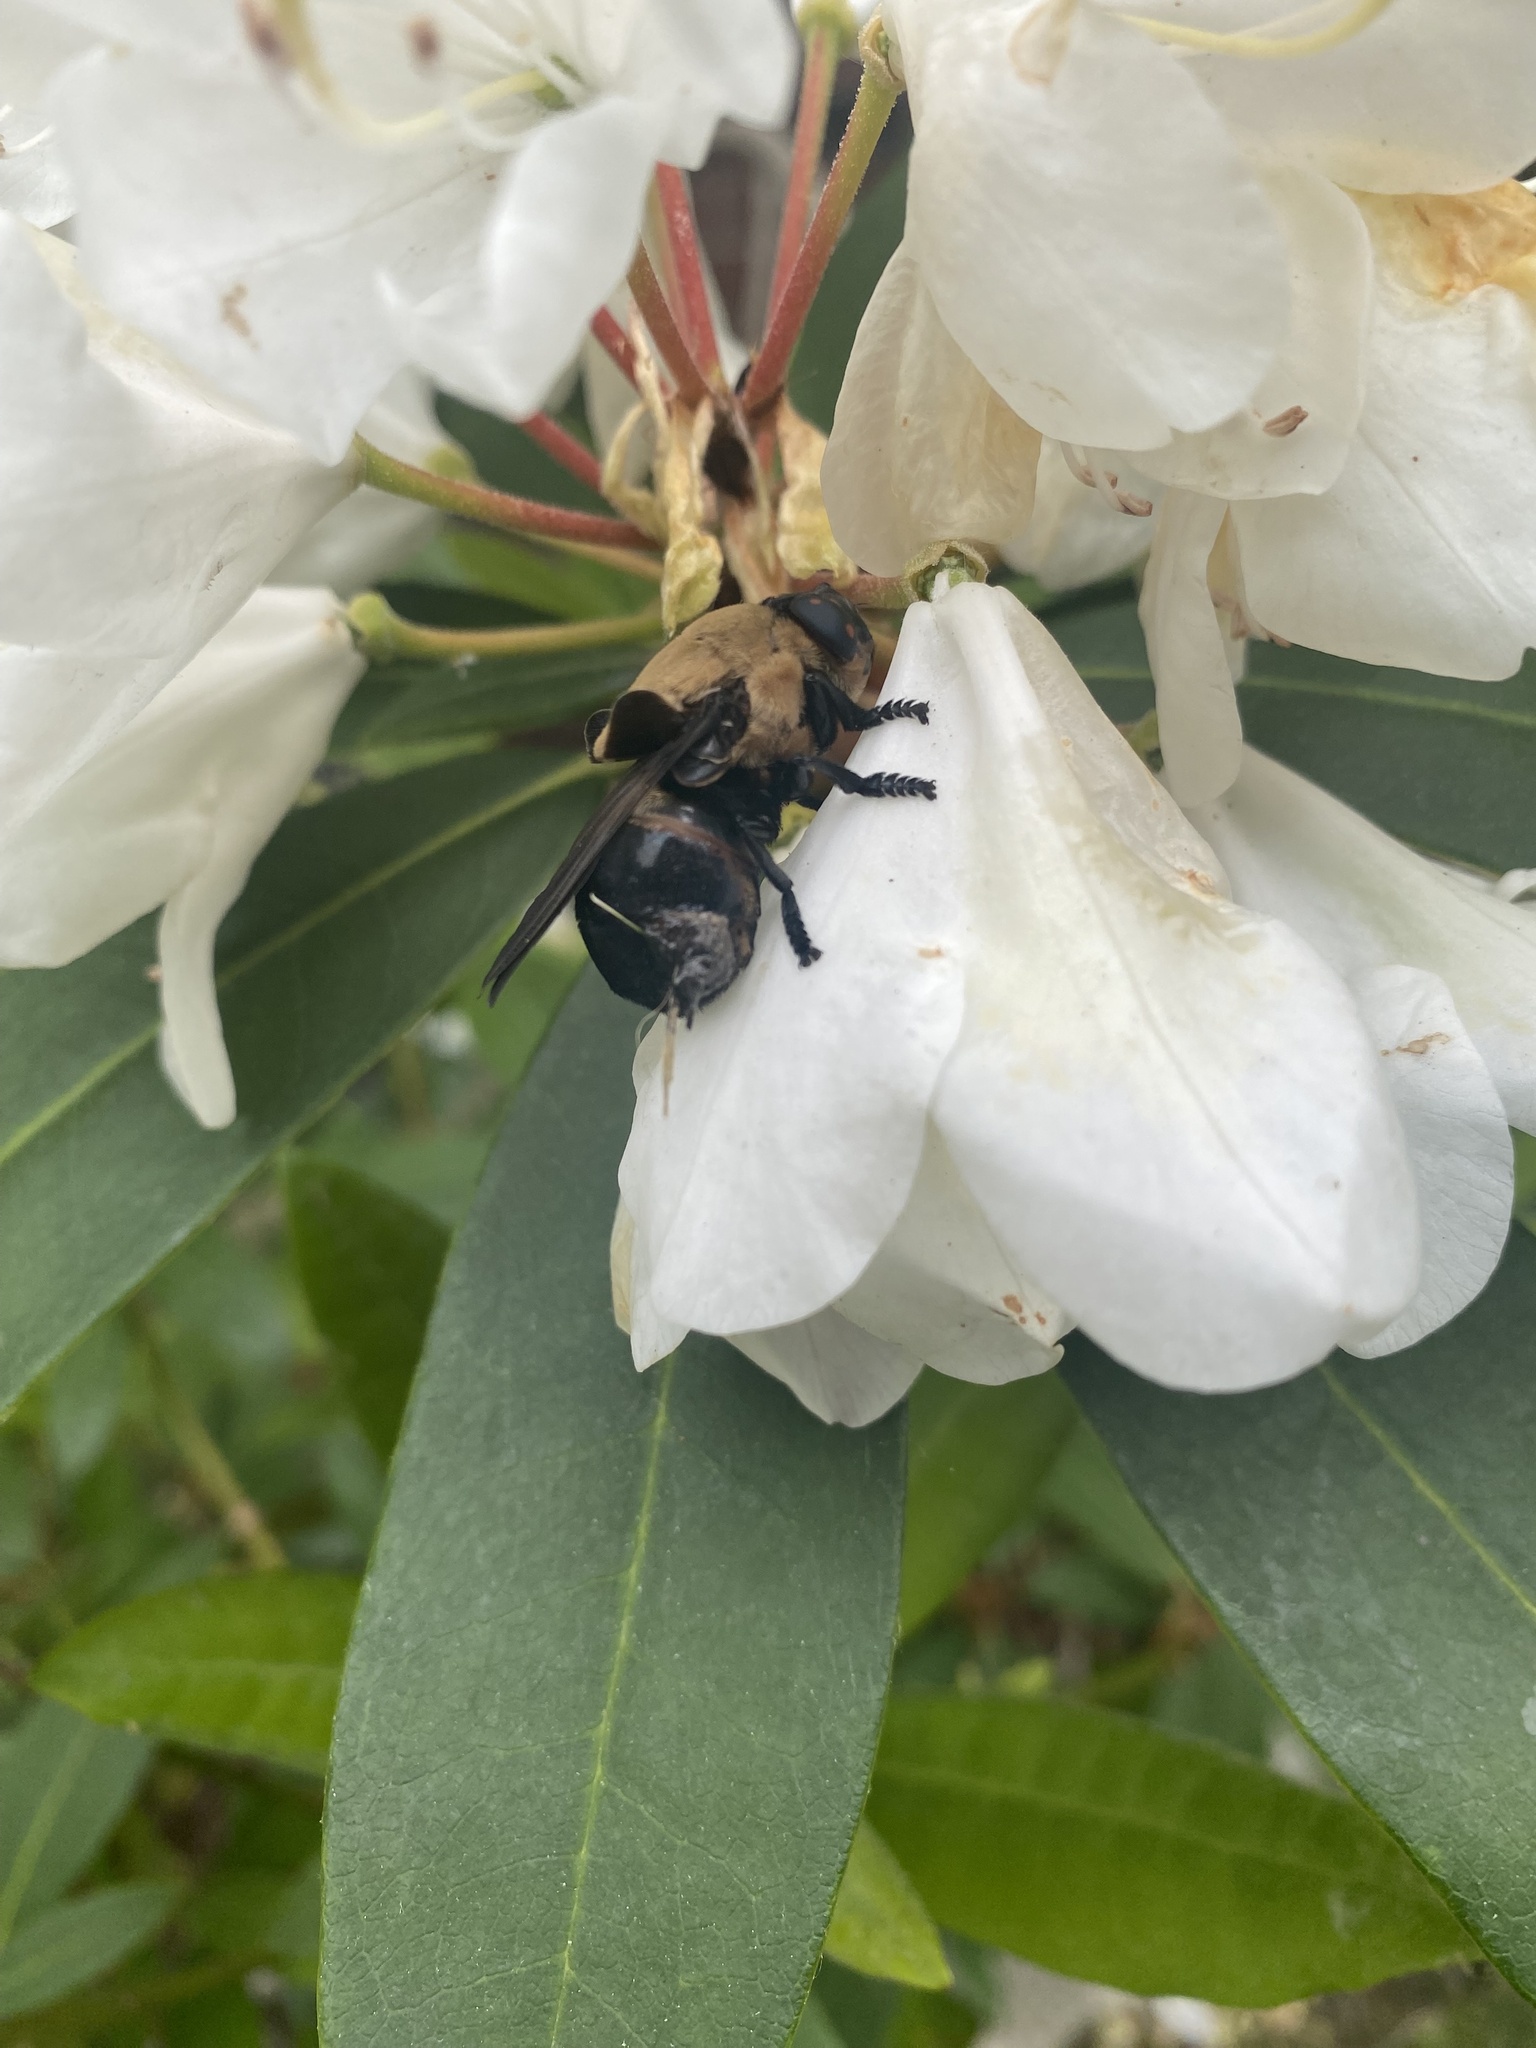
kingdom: Animalia
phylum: Arthropoda
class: Insecta
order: Diptera
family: Oestridae
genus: Cuterebra
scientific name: Cuterebra abdominalis
